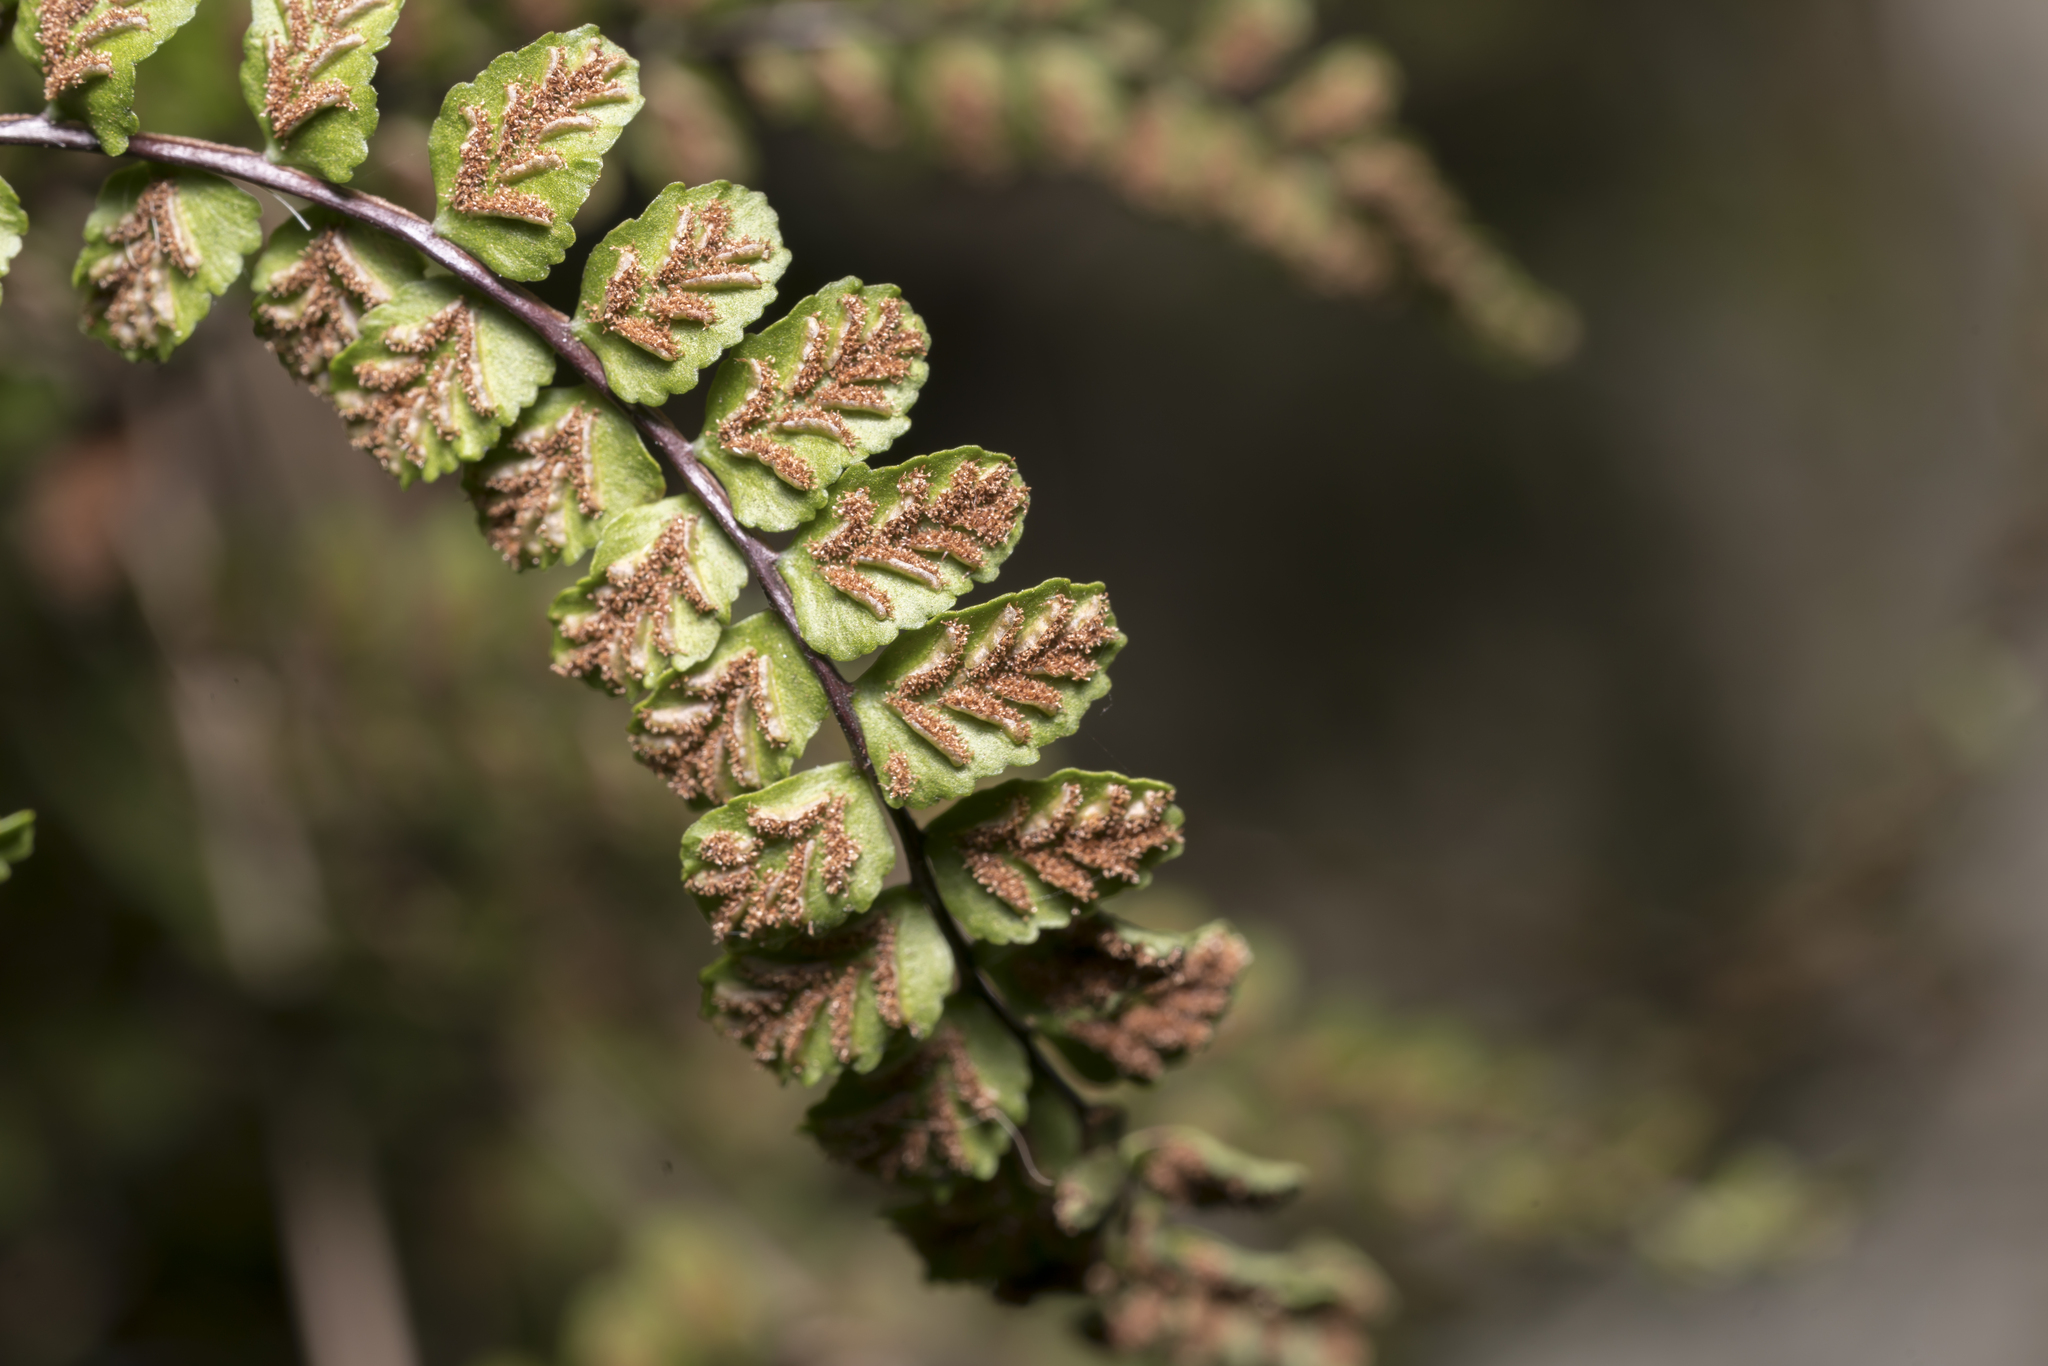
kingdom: Plantae
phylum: Tracheophyta
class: Polypodiopsida
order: Polypodiales
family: Aspleniaceae
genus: Asplenium
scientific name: Asplenium trichomanes
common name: Maidenhair spleenwort
